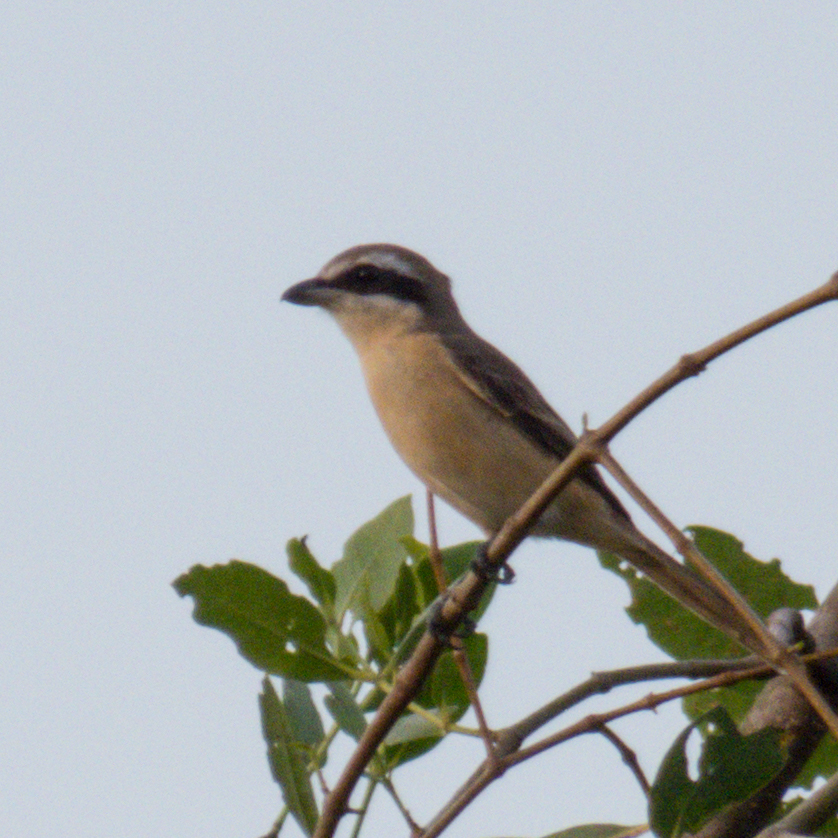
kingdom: Animalia
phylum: Chordata
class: Aves
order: Passeriformes
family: Laniidae
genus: Lanius
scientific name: Lanius cristatus
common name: Brown shrike
